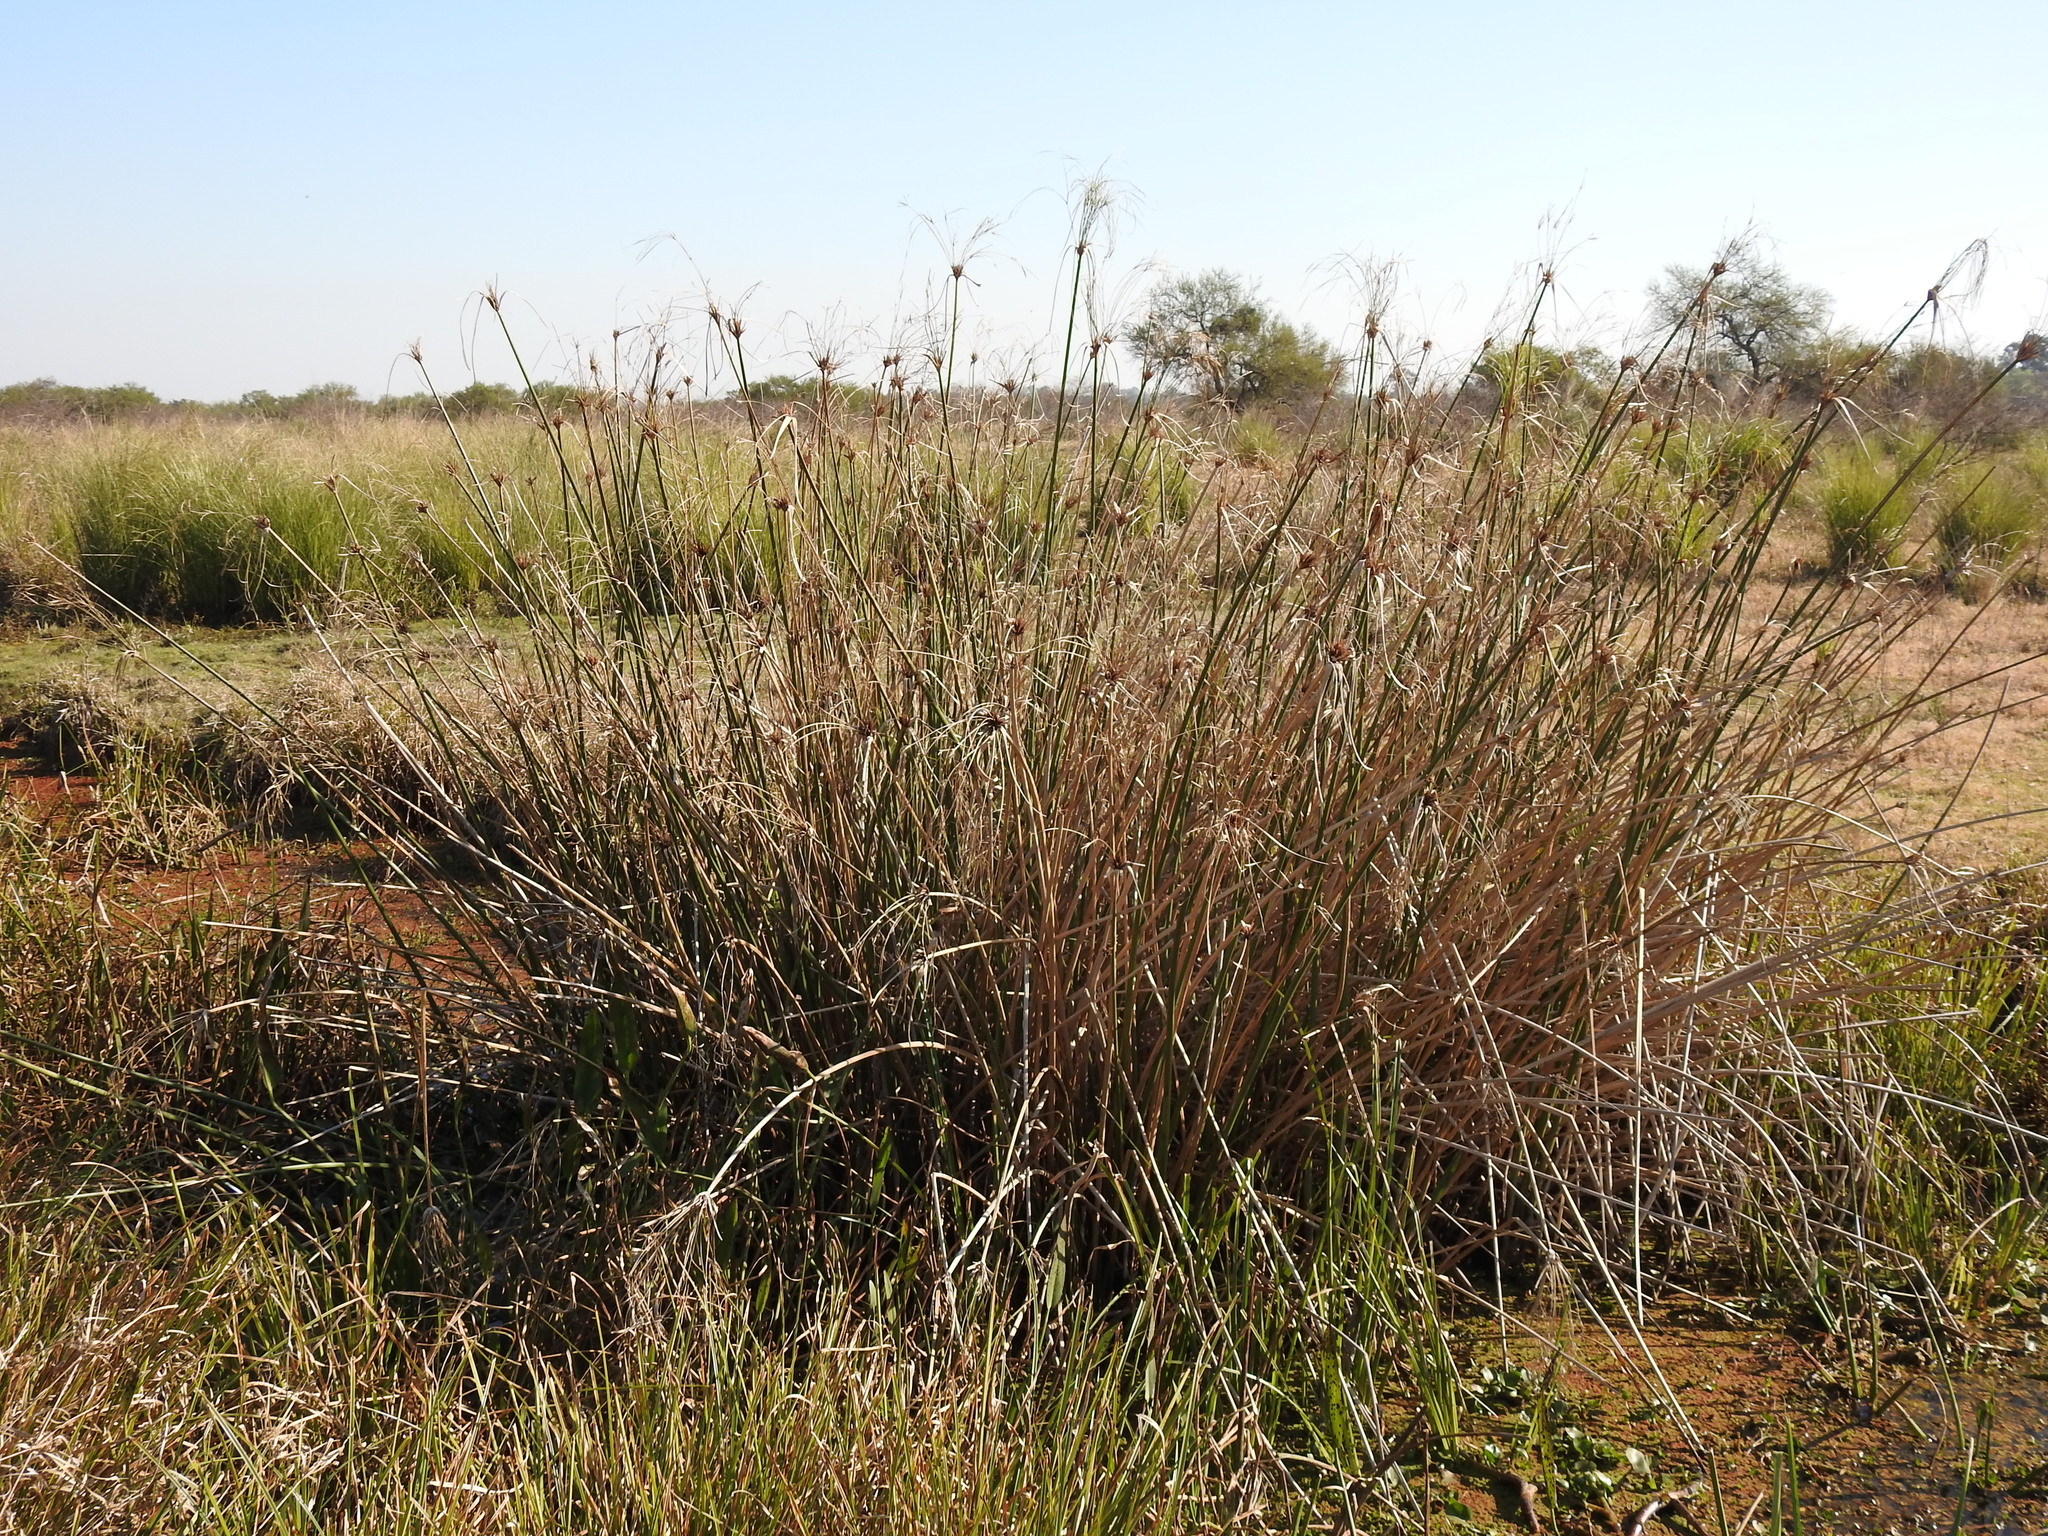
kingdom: Plantae
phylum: Tracheophyta
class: Liliopsida
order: Poales
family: Cyperaceae
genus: Cyperus
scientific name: Cyperus giganteus
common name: Giant flat sedge
